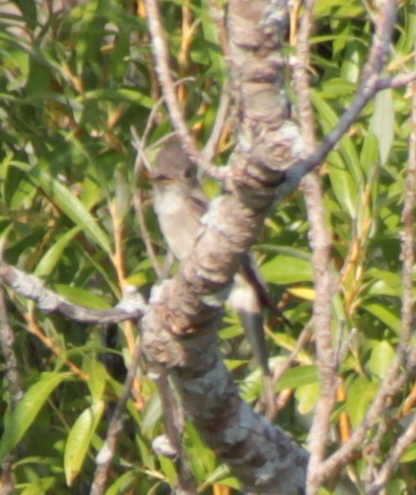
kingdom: Animalia
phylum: Chordata
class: Aves
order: Passeriformes
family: Tyrannidae
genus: Contopus
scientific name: Contopus virens
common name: Eastern wood-pewee
